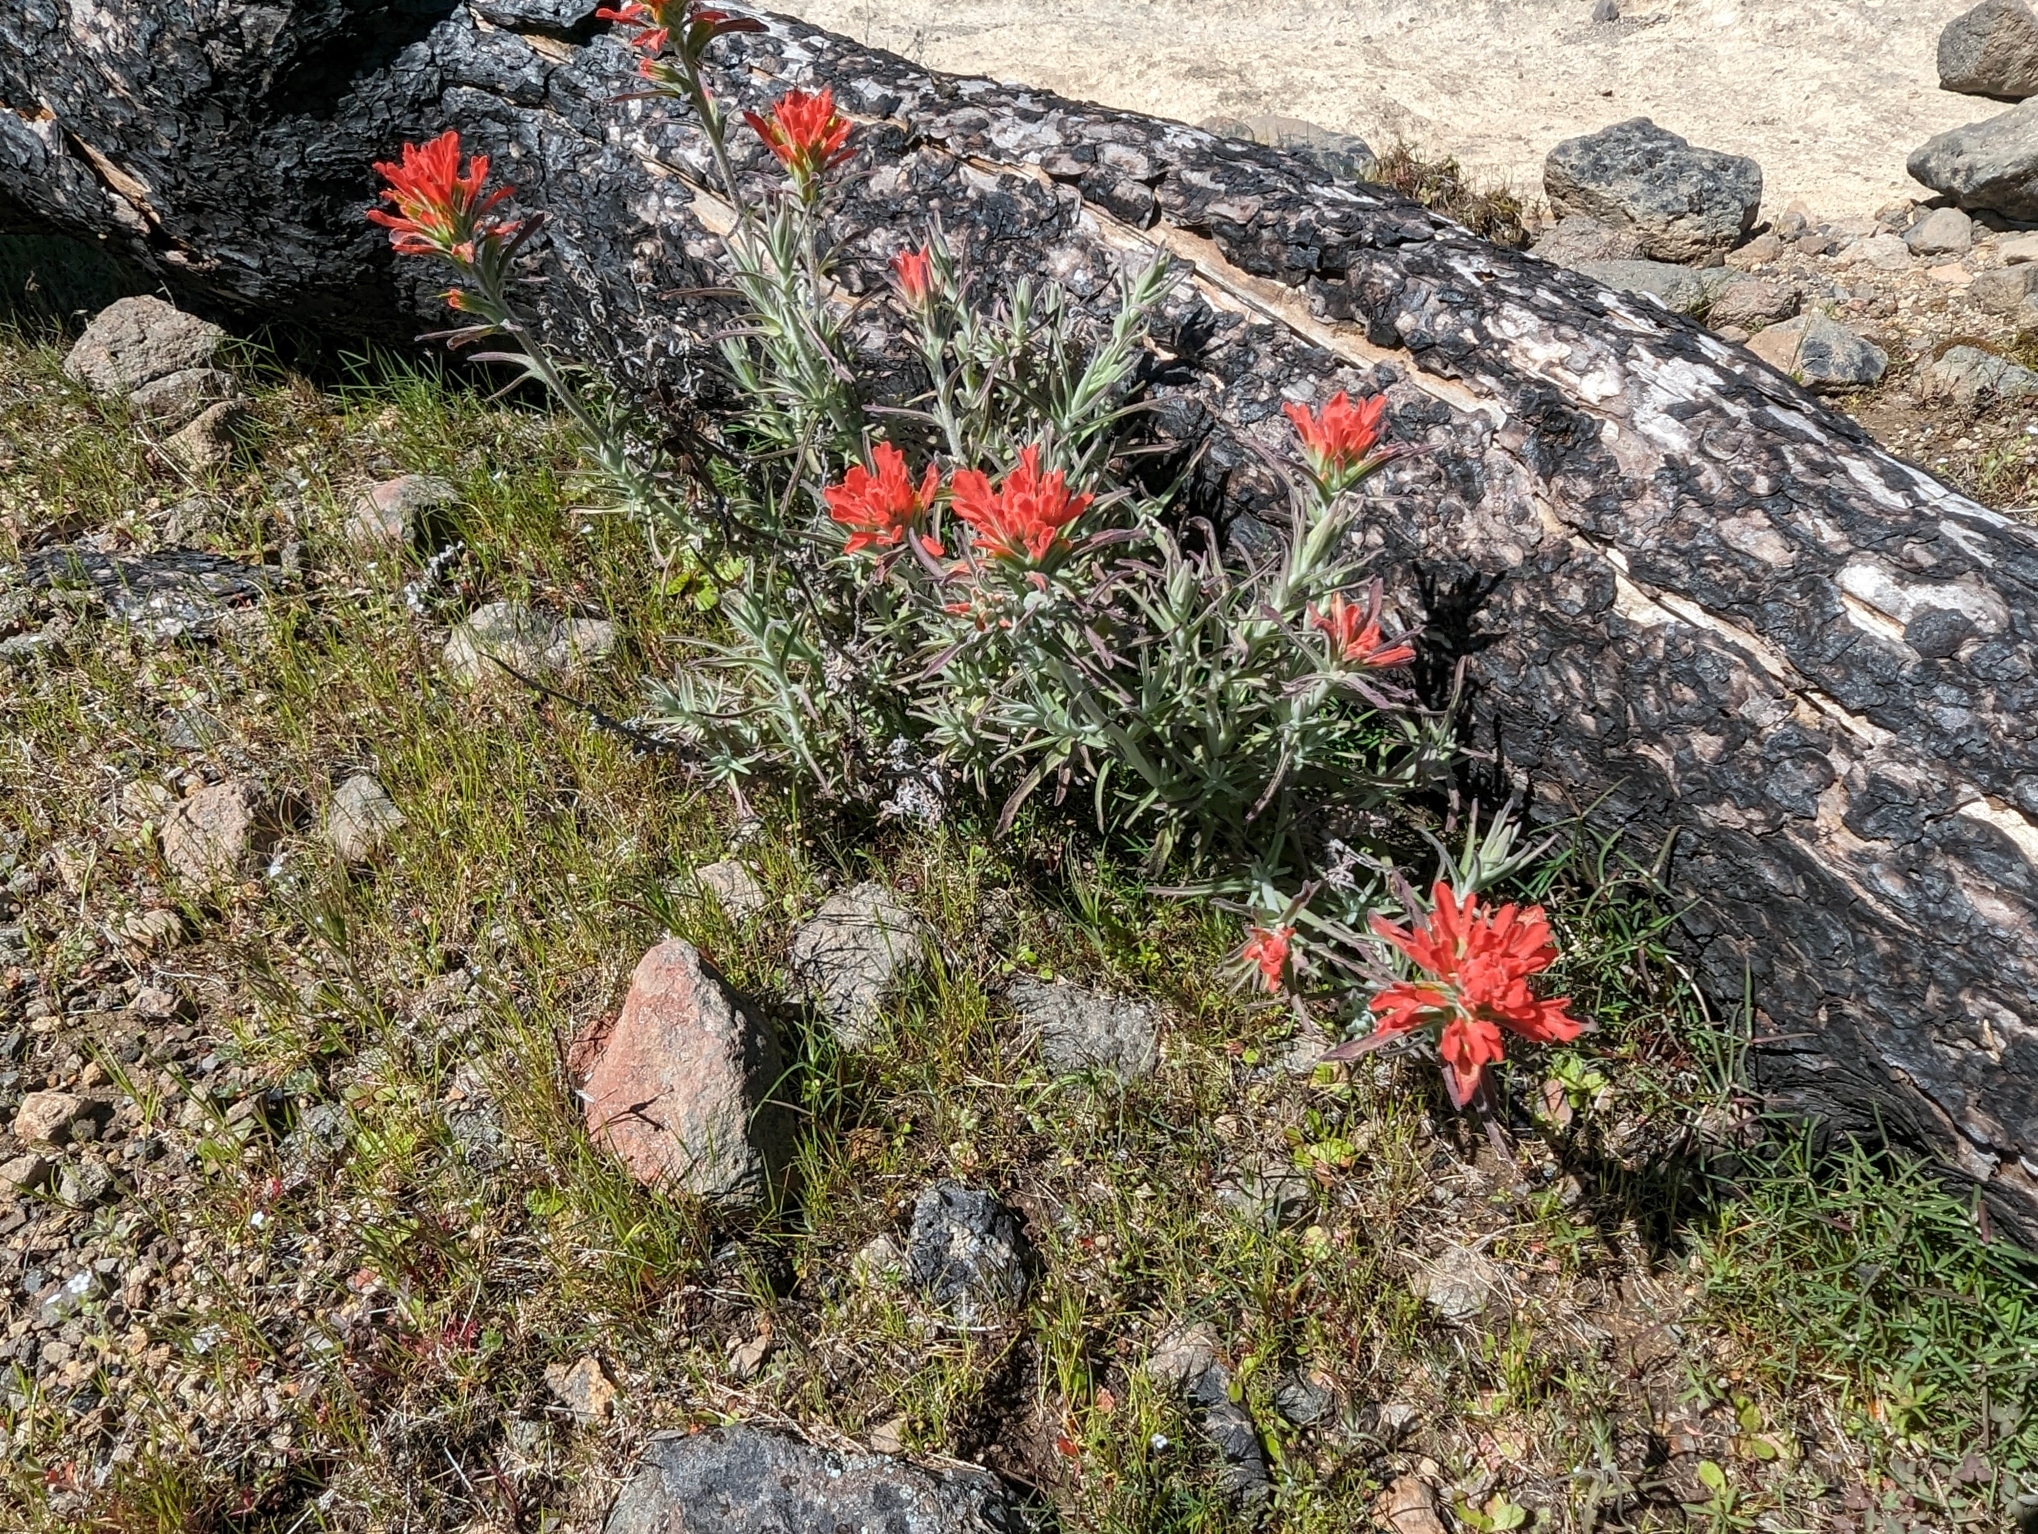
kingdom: Plantae
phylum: Tracheophyta
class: Magnoliopsida
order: Lamiales
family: Orobanchaceae
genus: Castilleja
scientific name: Castilleja foliolosa
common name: Woolly indian paintbrush
